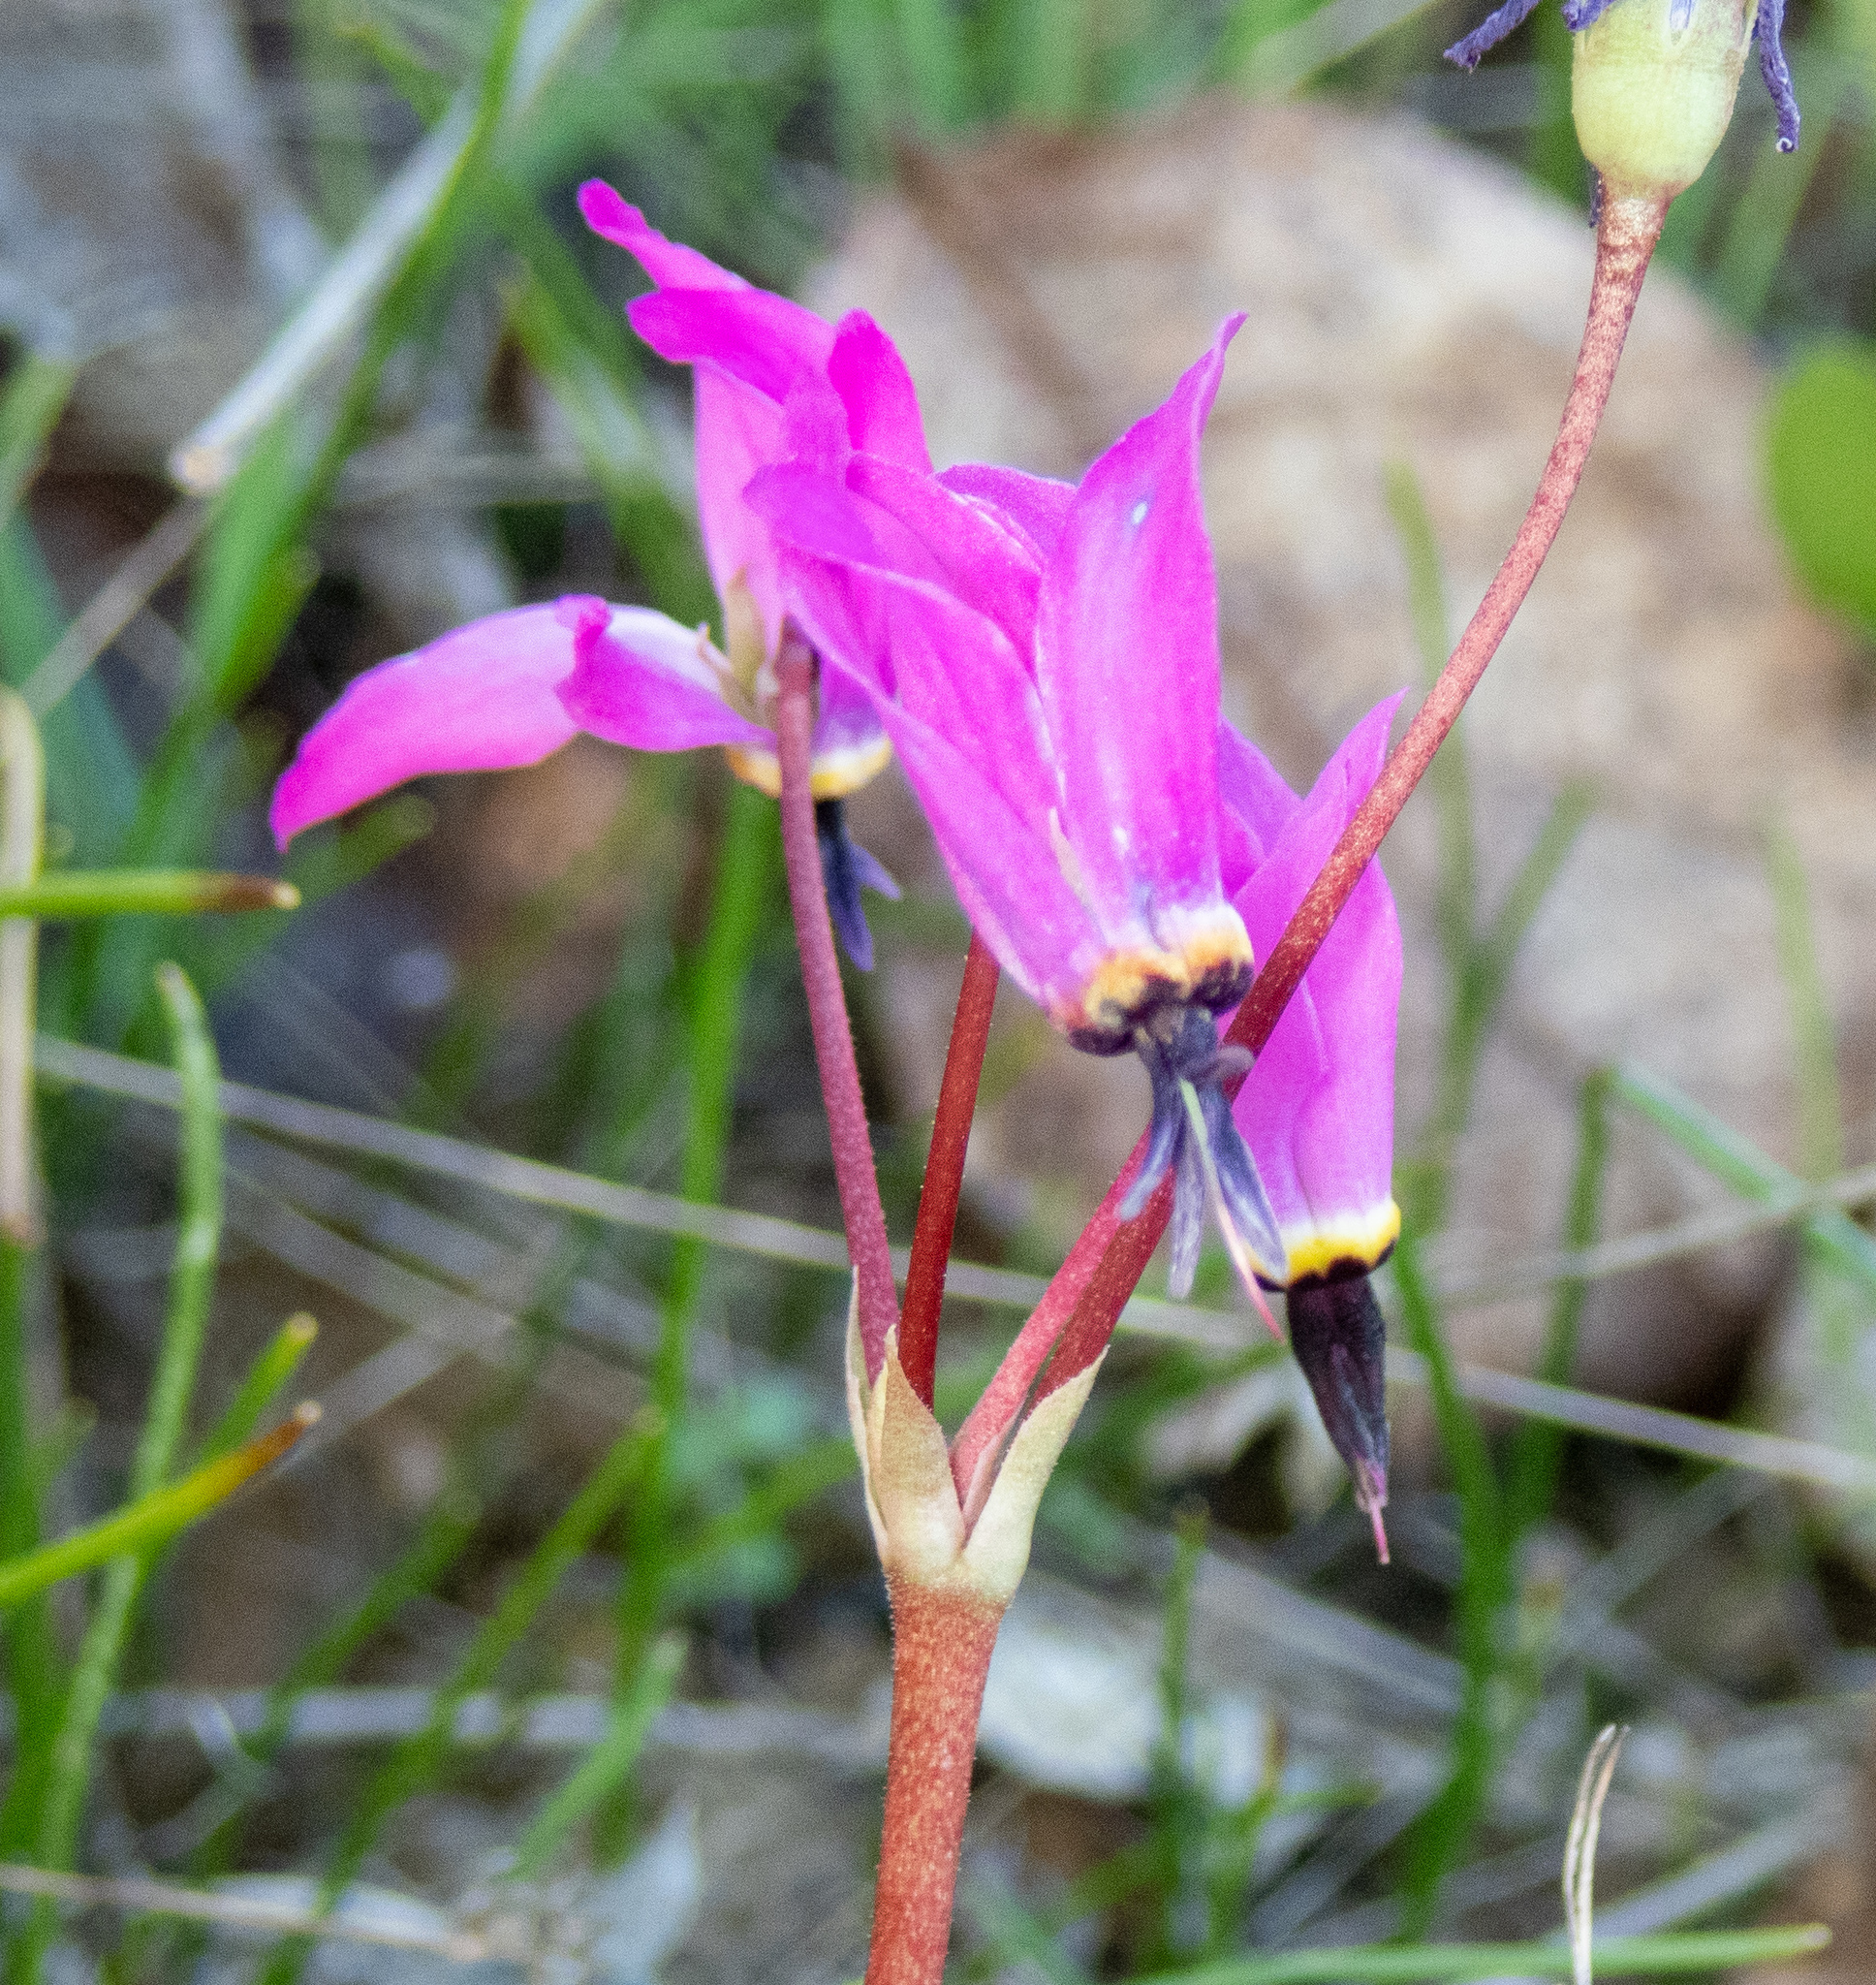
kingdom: Plantae
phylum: Tracheophyta
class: Magnoliopsida
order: Ericales
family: Primulaceae
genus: Dodecatheon
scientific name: Dodecatheon hendersonii
